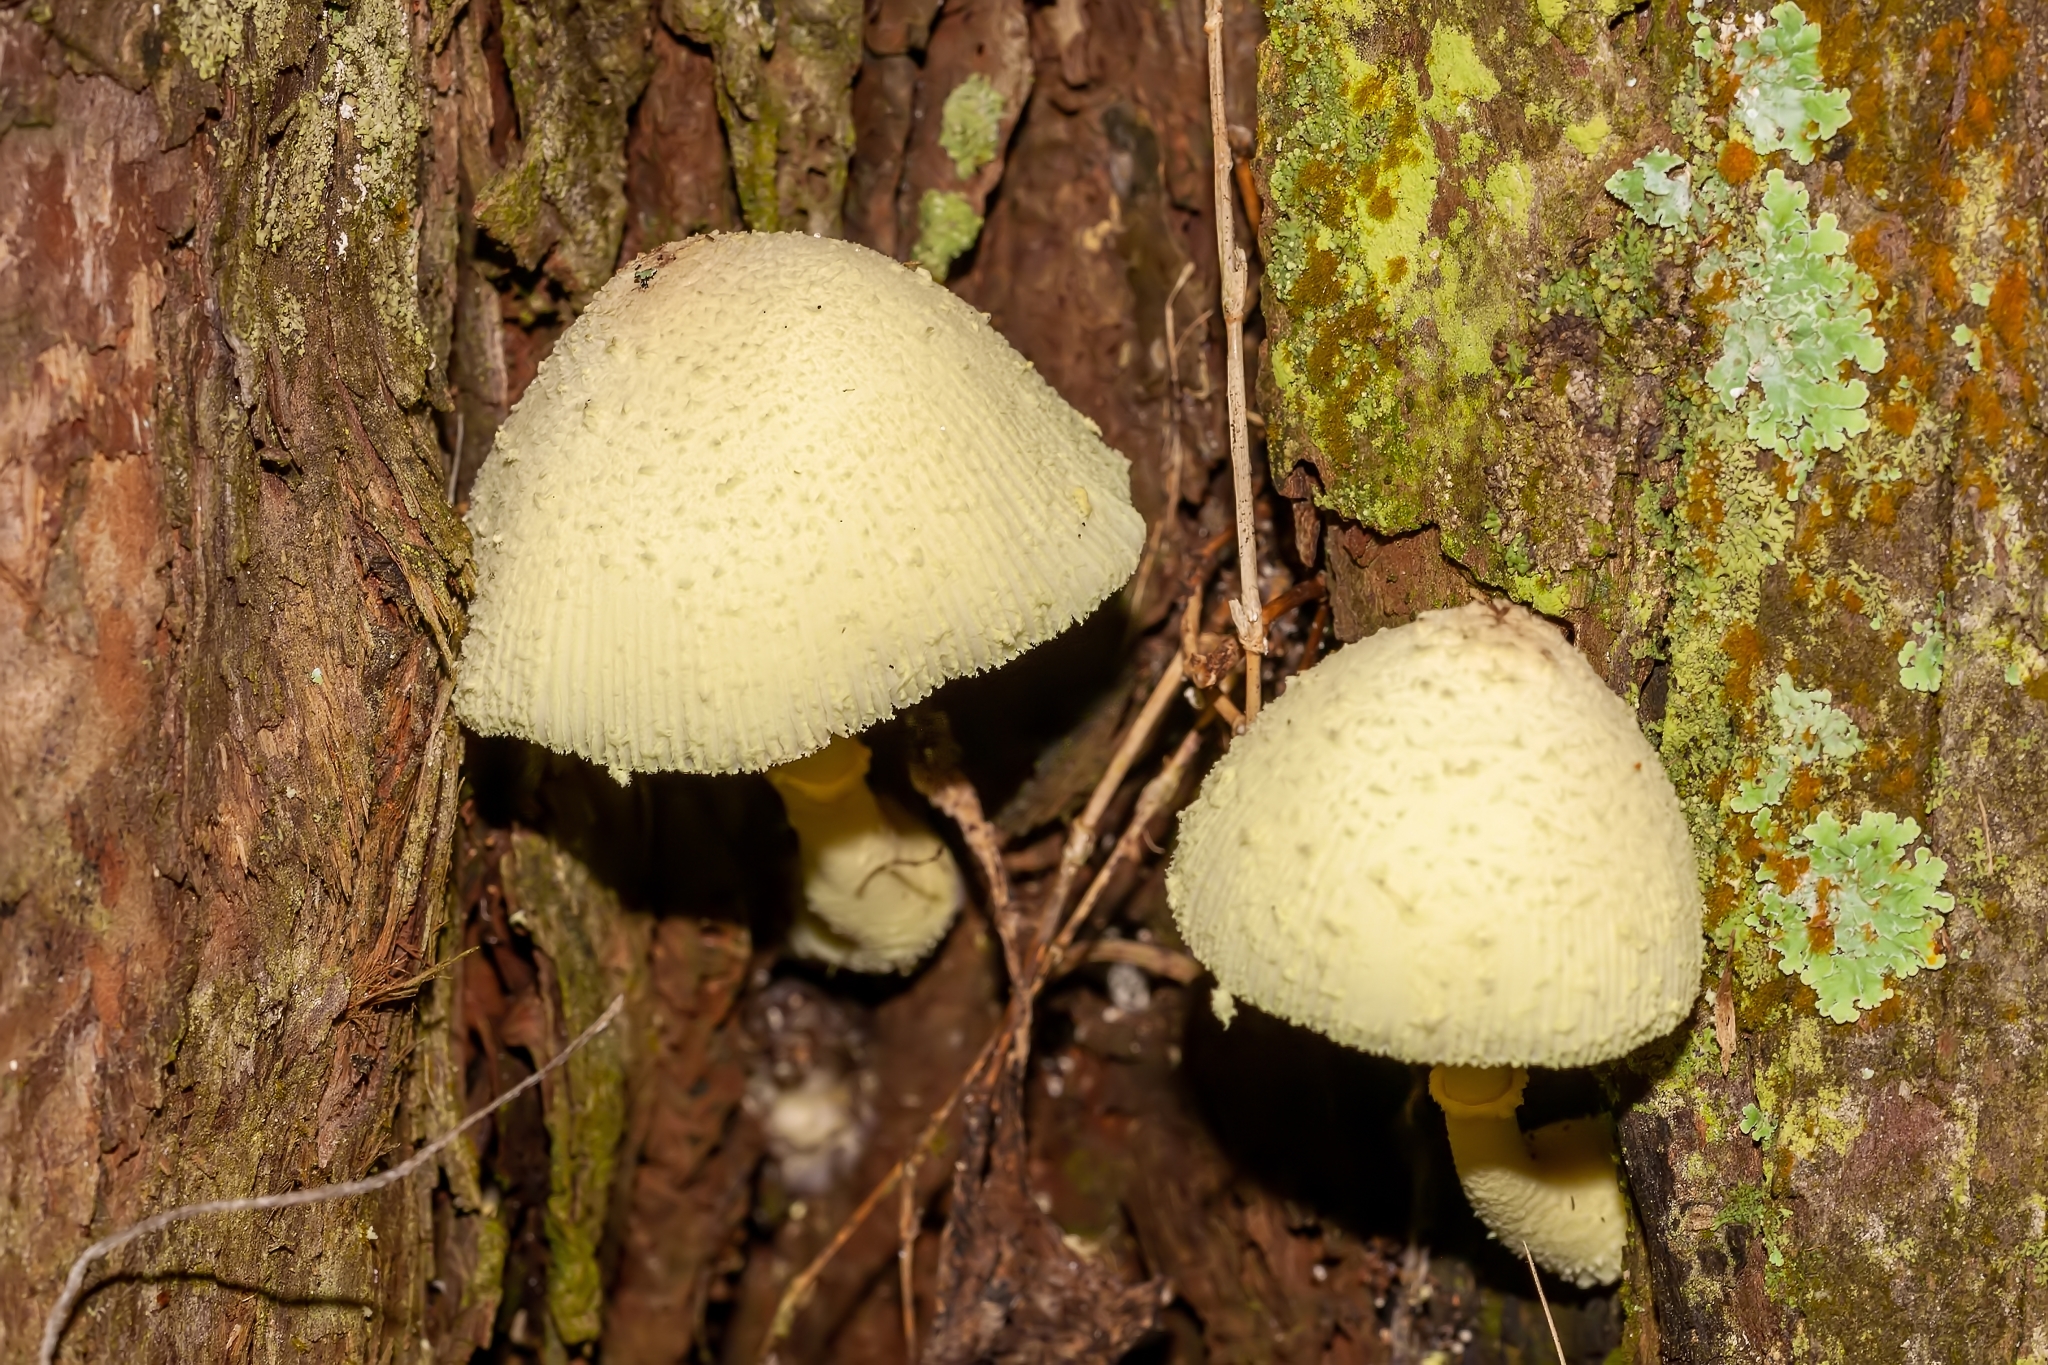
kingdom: Fungi
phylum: Basidiomycota
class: Agaricomycetes
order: Agaricales
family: Agaricaceae
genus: Leucocoprinus
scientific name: Leucocoprinus birnbaumii
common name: Plantpot dapperling
